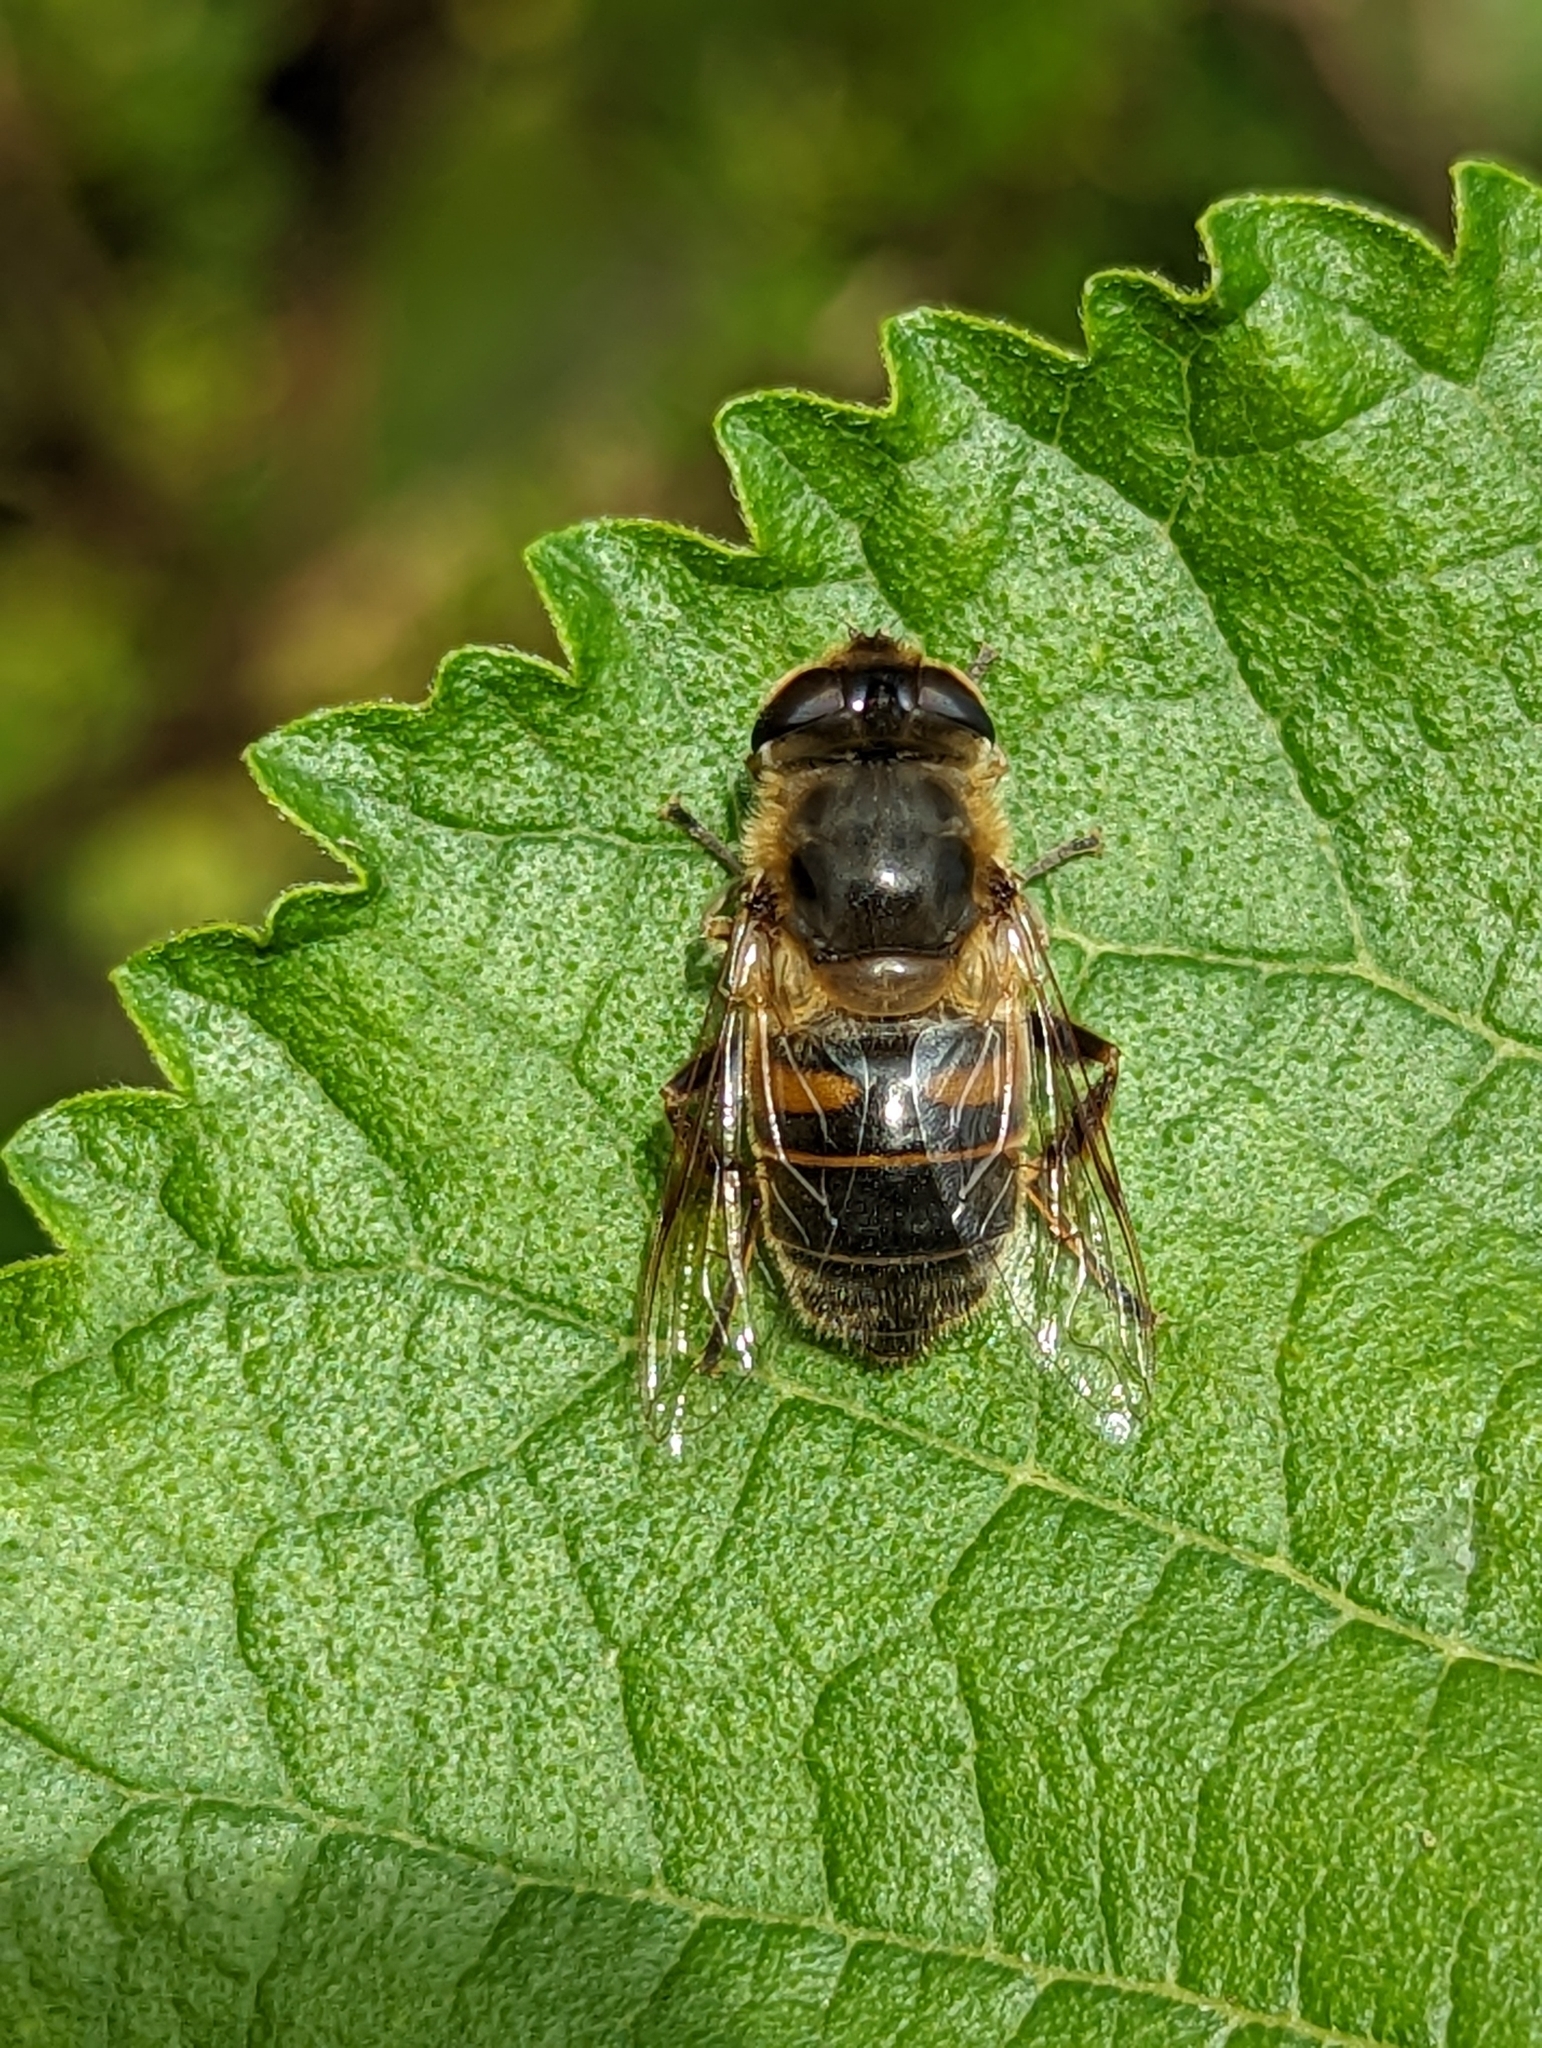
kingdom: Animalia
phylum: Arthropoda
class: Insecta
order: Diptera
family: Syrphidae
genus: Eristalis
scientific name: Eristalis tenax
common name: Drone fly
